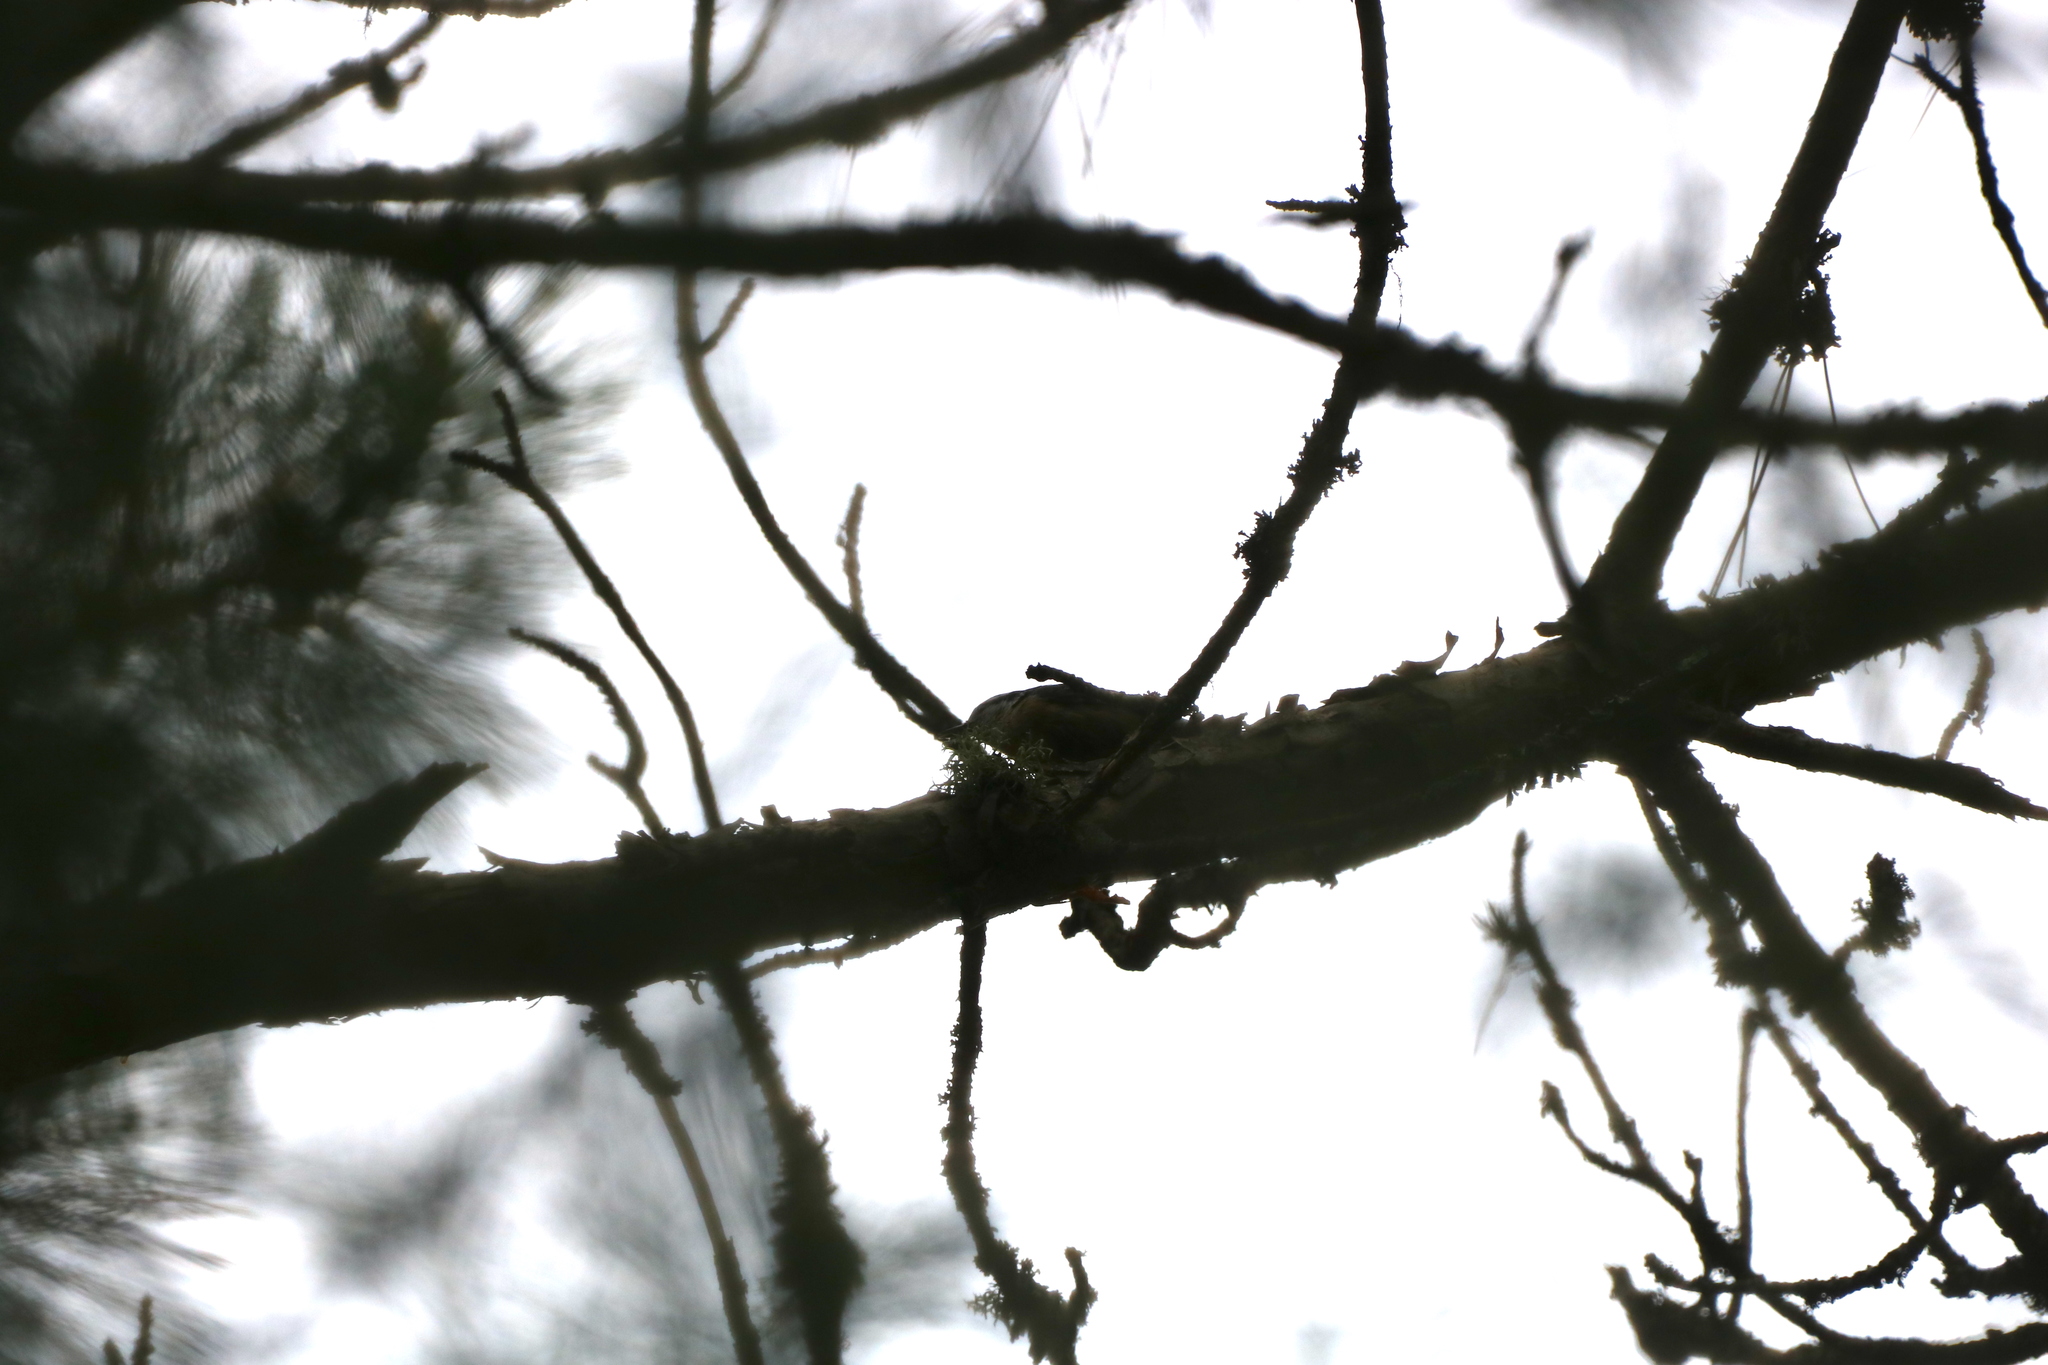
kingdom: Animalia
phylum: Chordata
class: Aves
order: Passeriformes
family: Sittidae
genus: Sitta
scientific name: Sitta canadensis
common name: Red-breasted nuthatch
